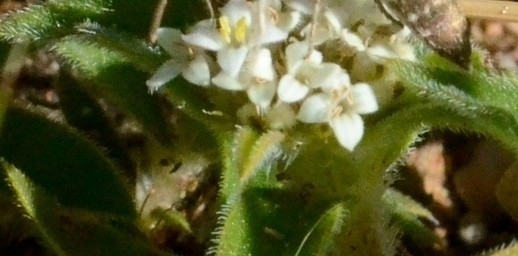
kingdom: Plantae
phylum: Tracheophyta
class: Magnoliopsida
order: Gentianales
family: Rubiaceae
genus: Richardia
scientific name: Richardia humistrata
